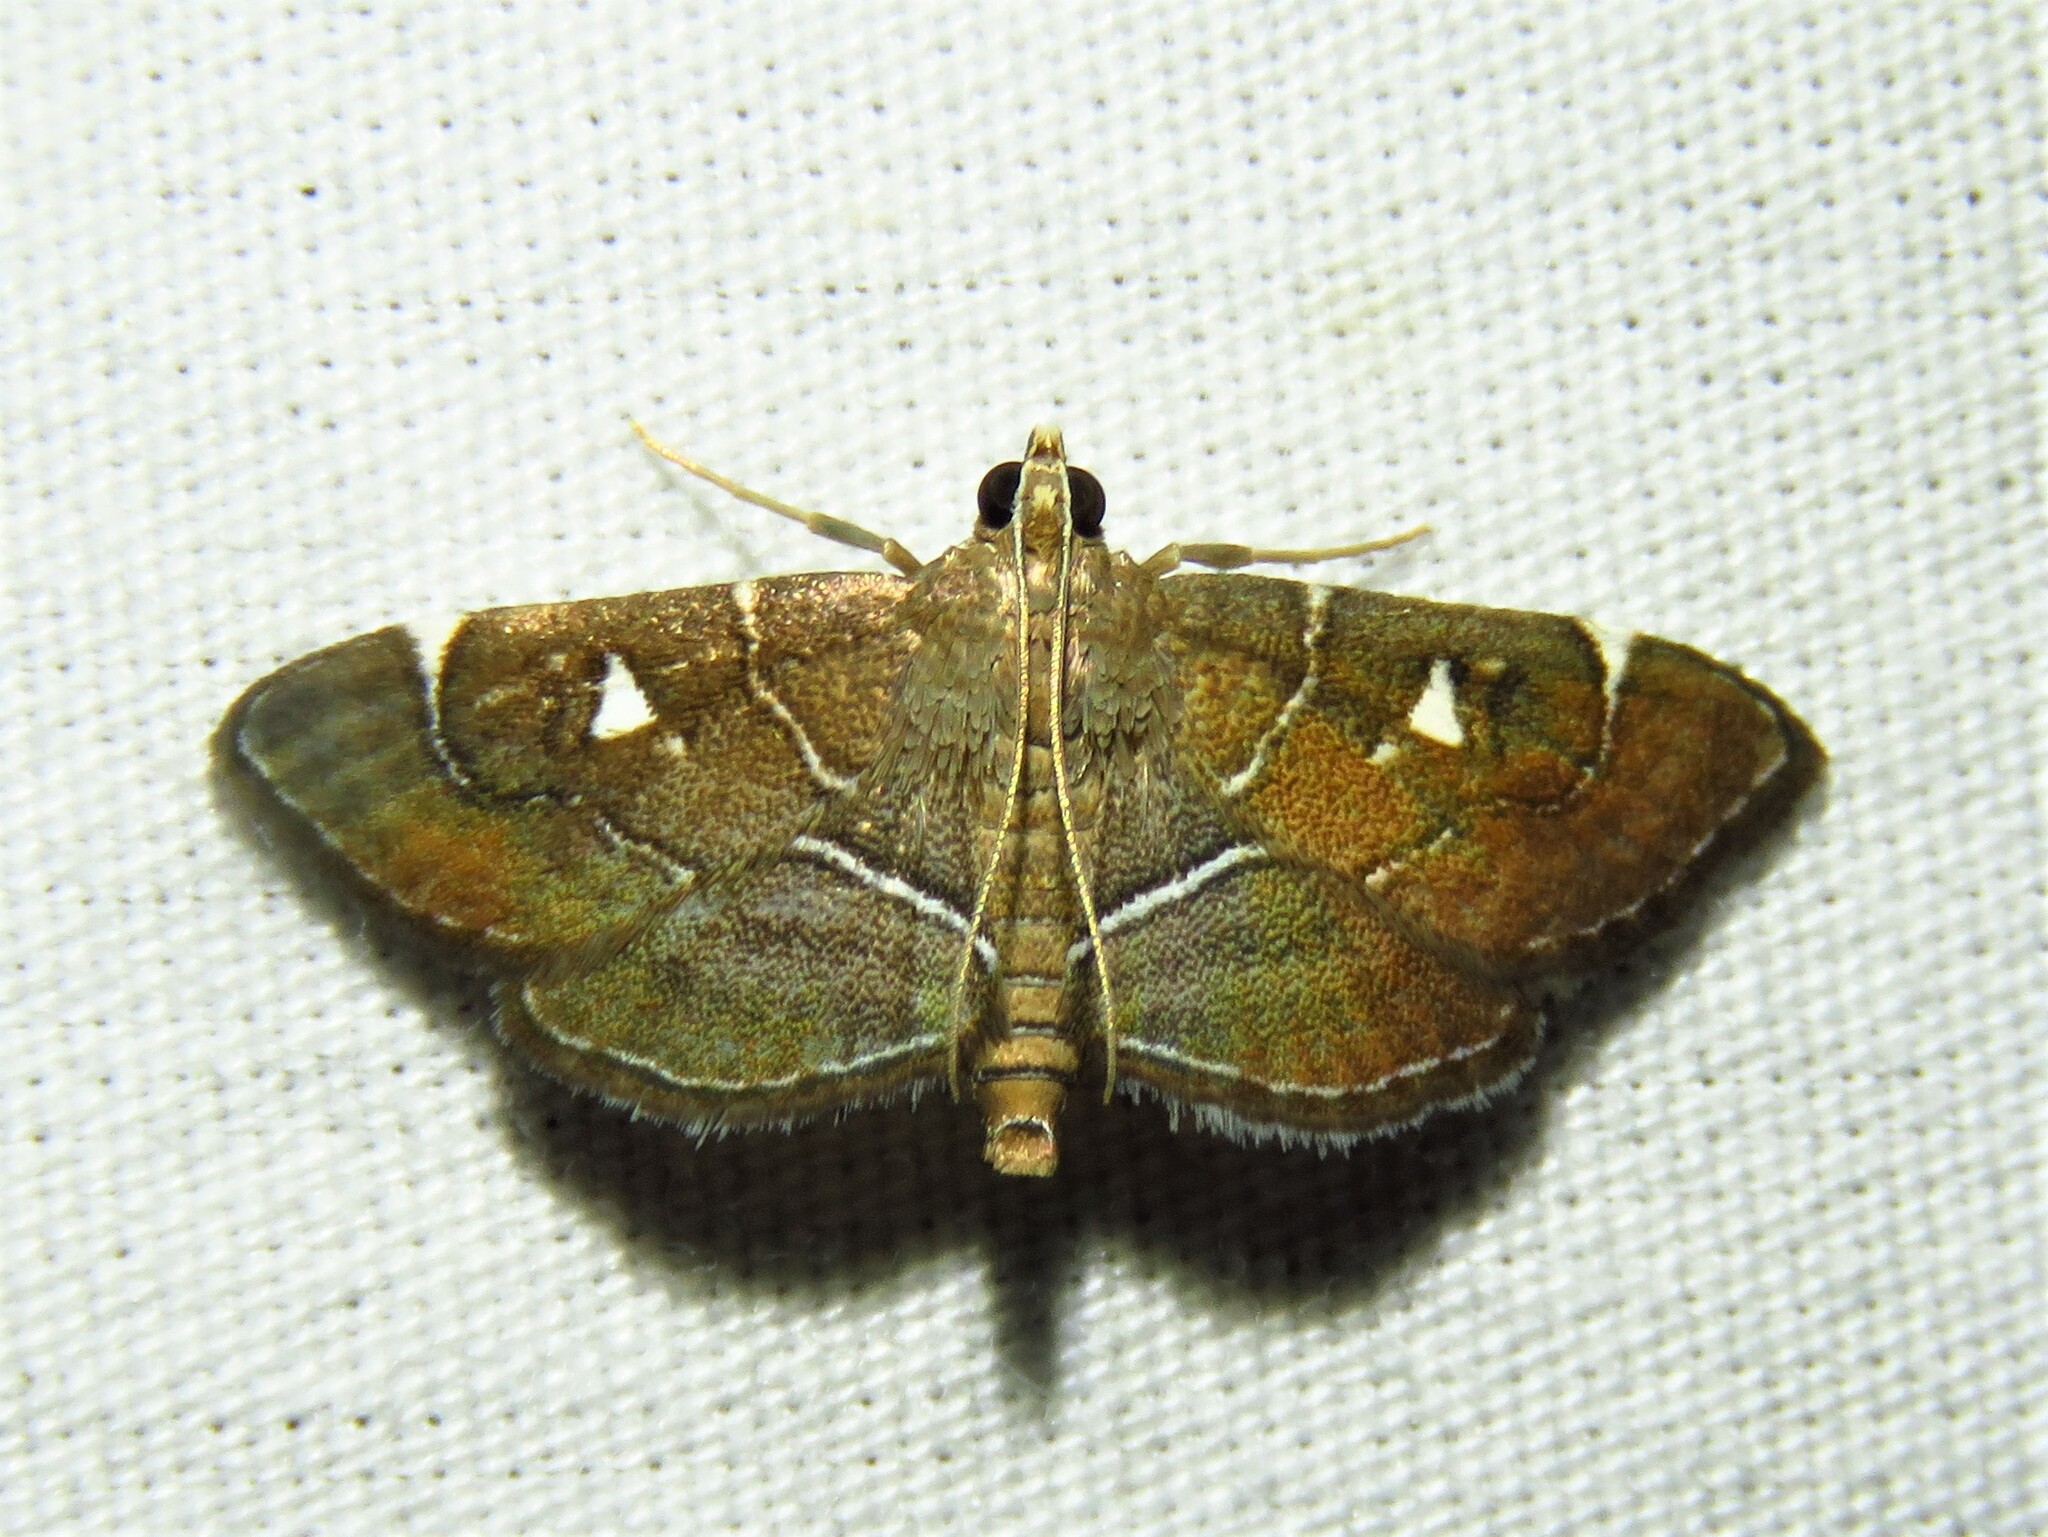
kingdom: Animalia
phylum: Arthropoda
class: Insecta
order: Lepidoptera
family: Crambidae
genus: Lamprosema
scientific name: Lamprosema victoriae
